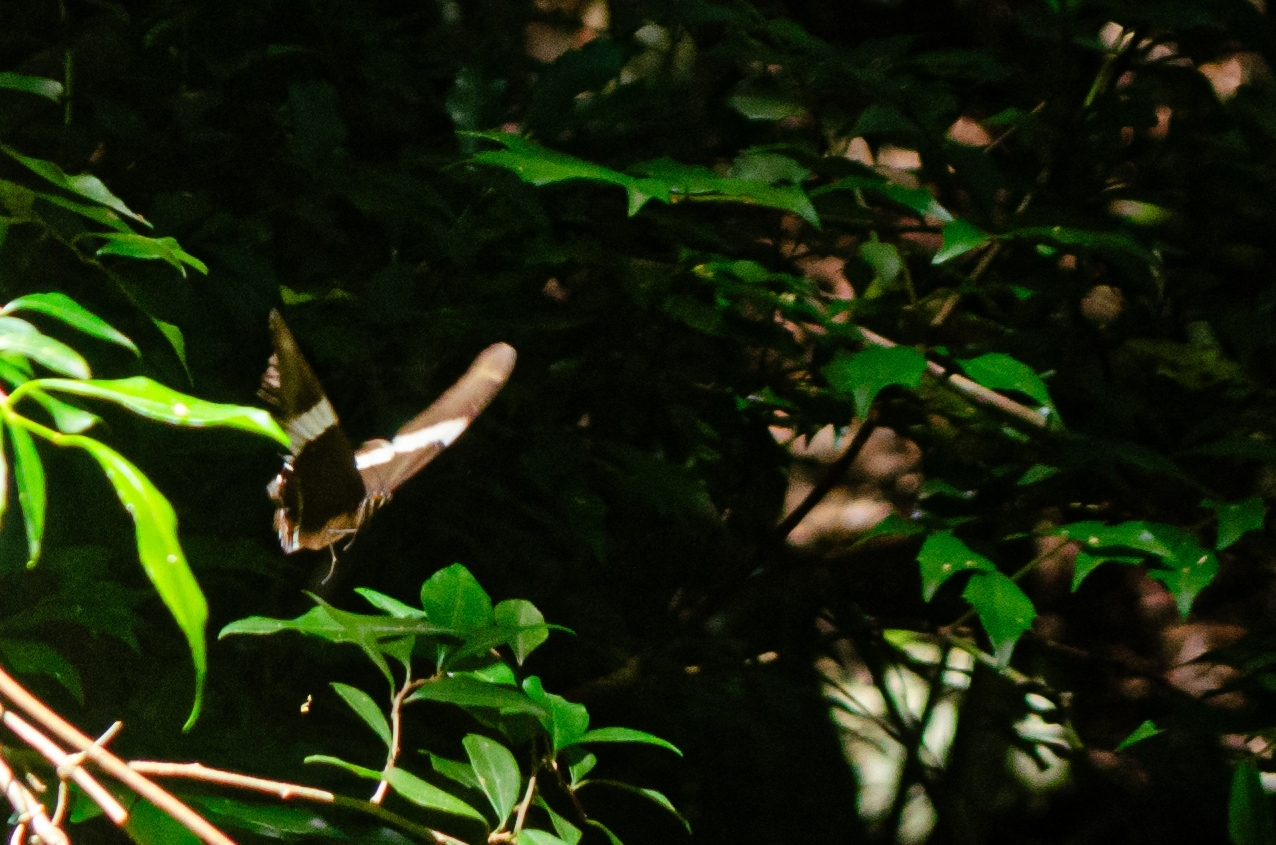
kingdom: Animalia
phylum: Arthropoda
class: Insecta
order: Lepidoptera
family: Nymphalidae
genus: Siproeta
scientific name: Siproeta epaphus
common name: Rusty-tipped page
